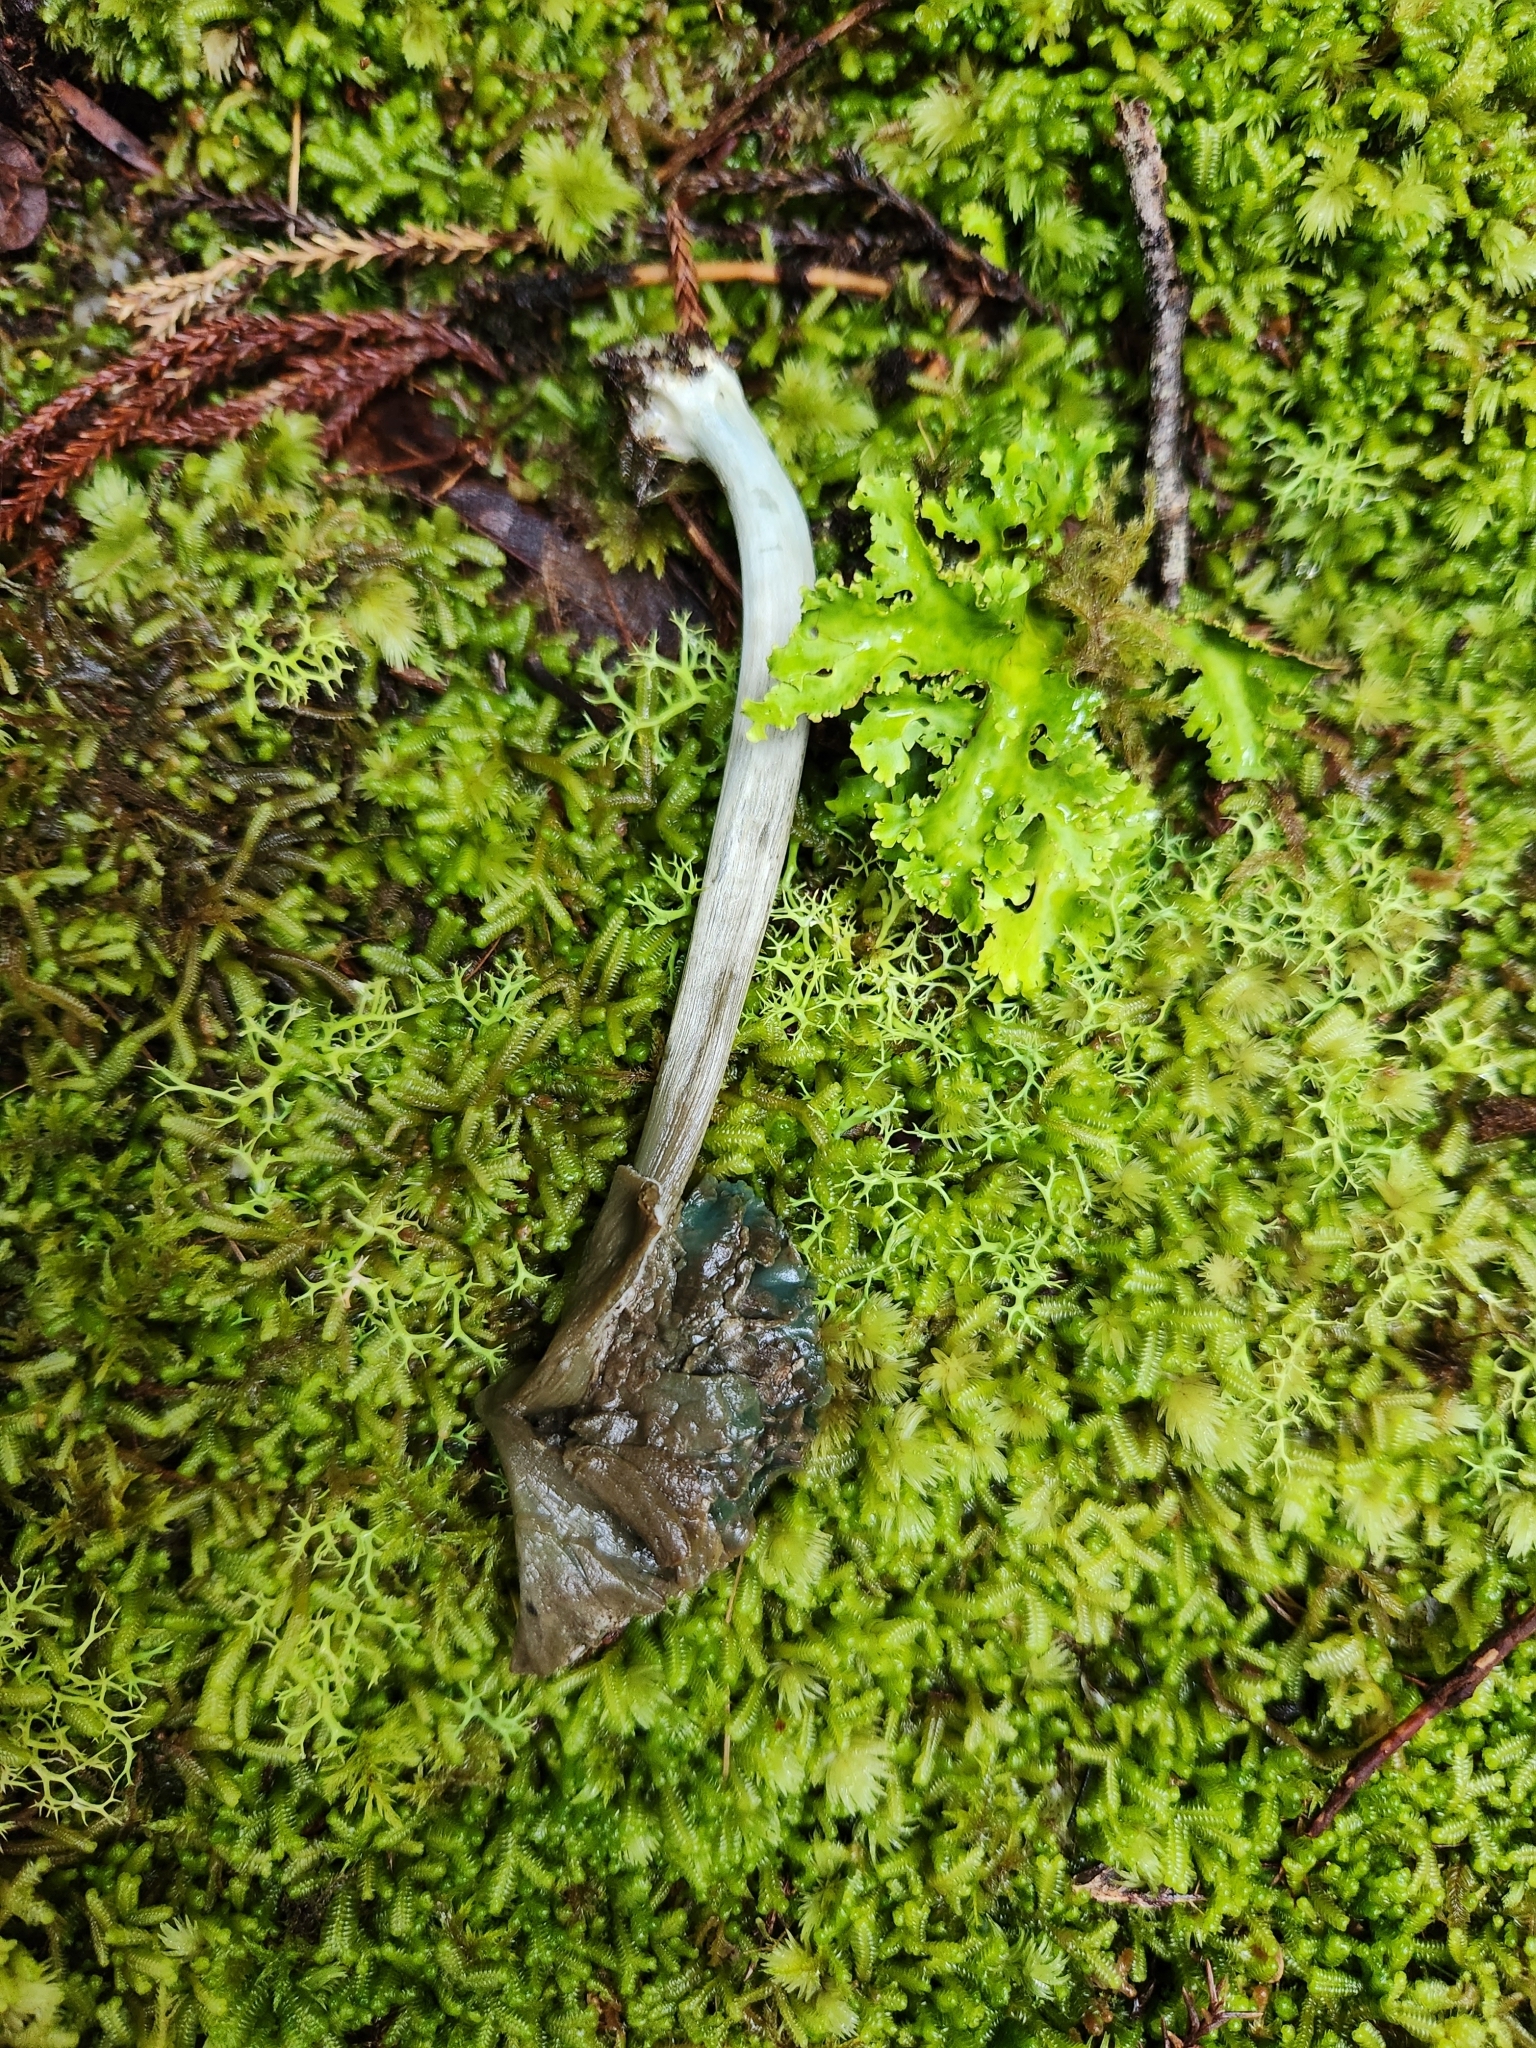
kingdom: Fungi
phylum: Basidiomycota
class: Agaricomycetes
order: Agaricales
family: Entolomataceae
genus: Entoloma
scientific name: Entoloma hochstetteri
